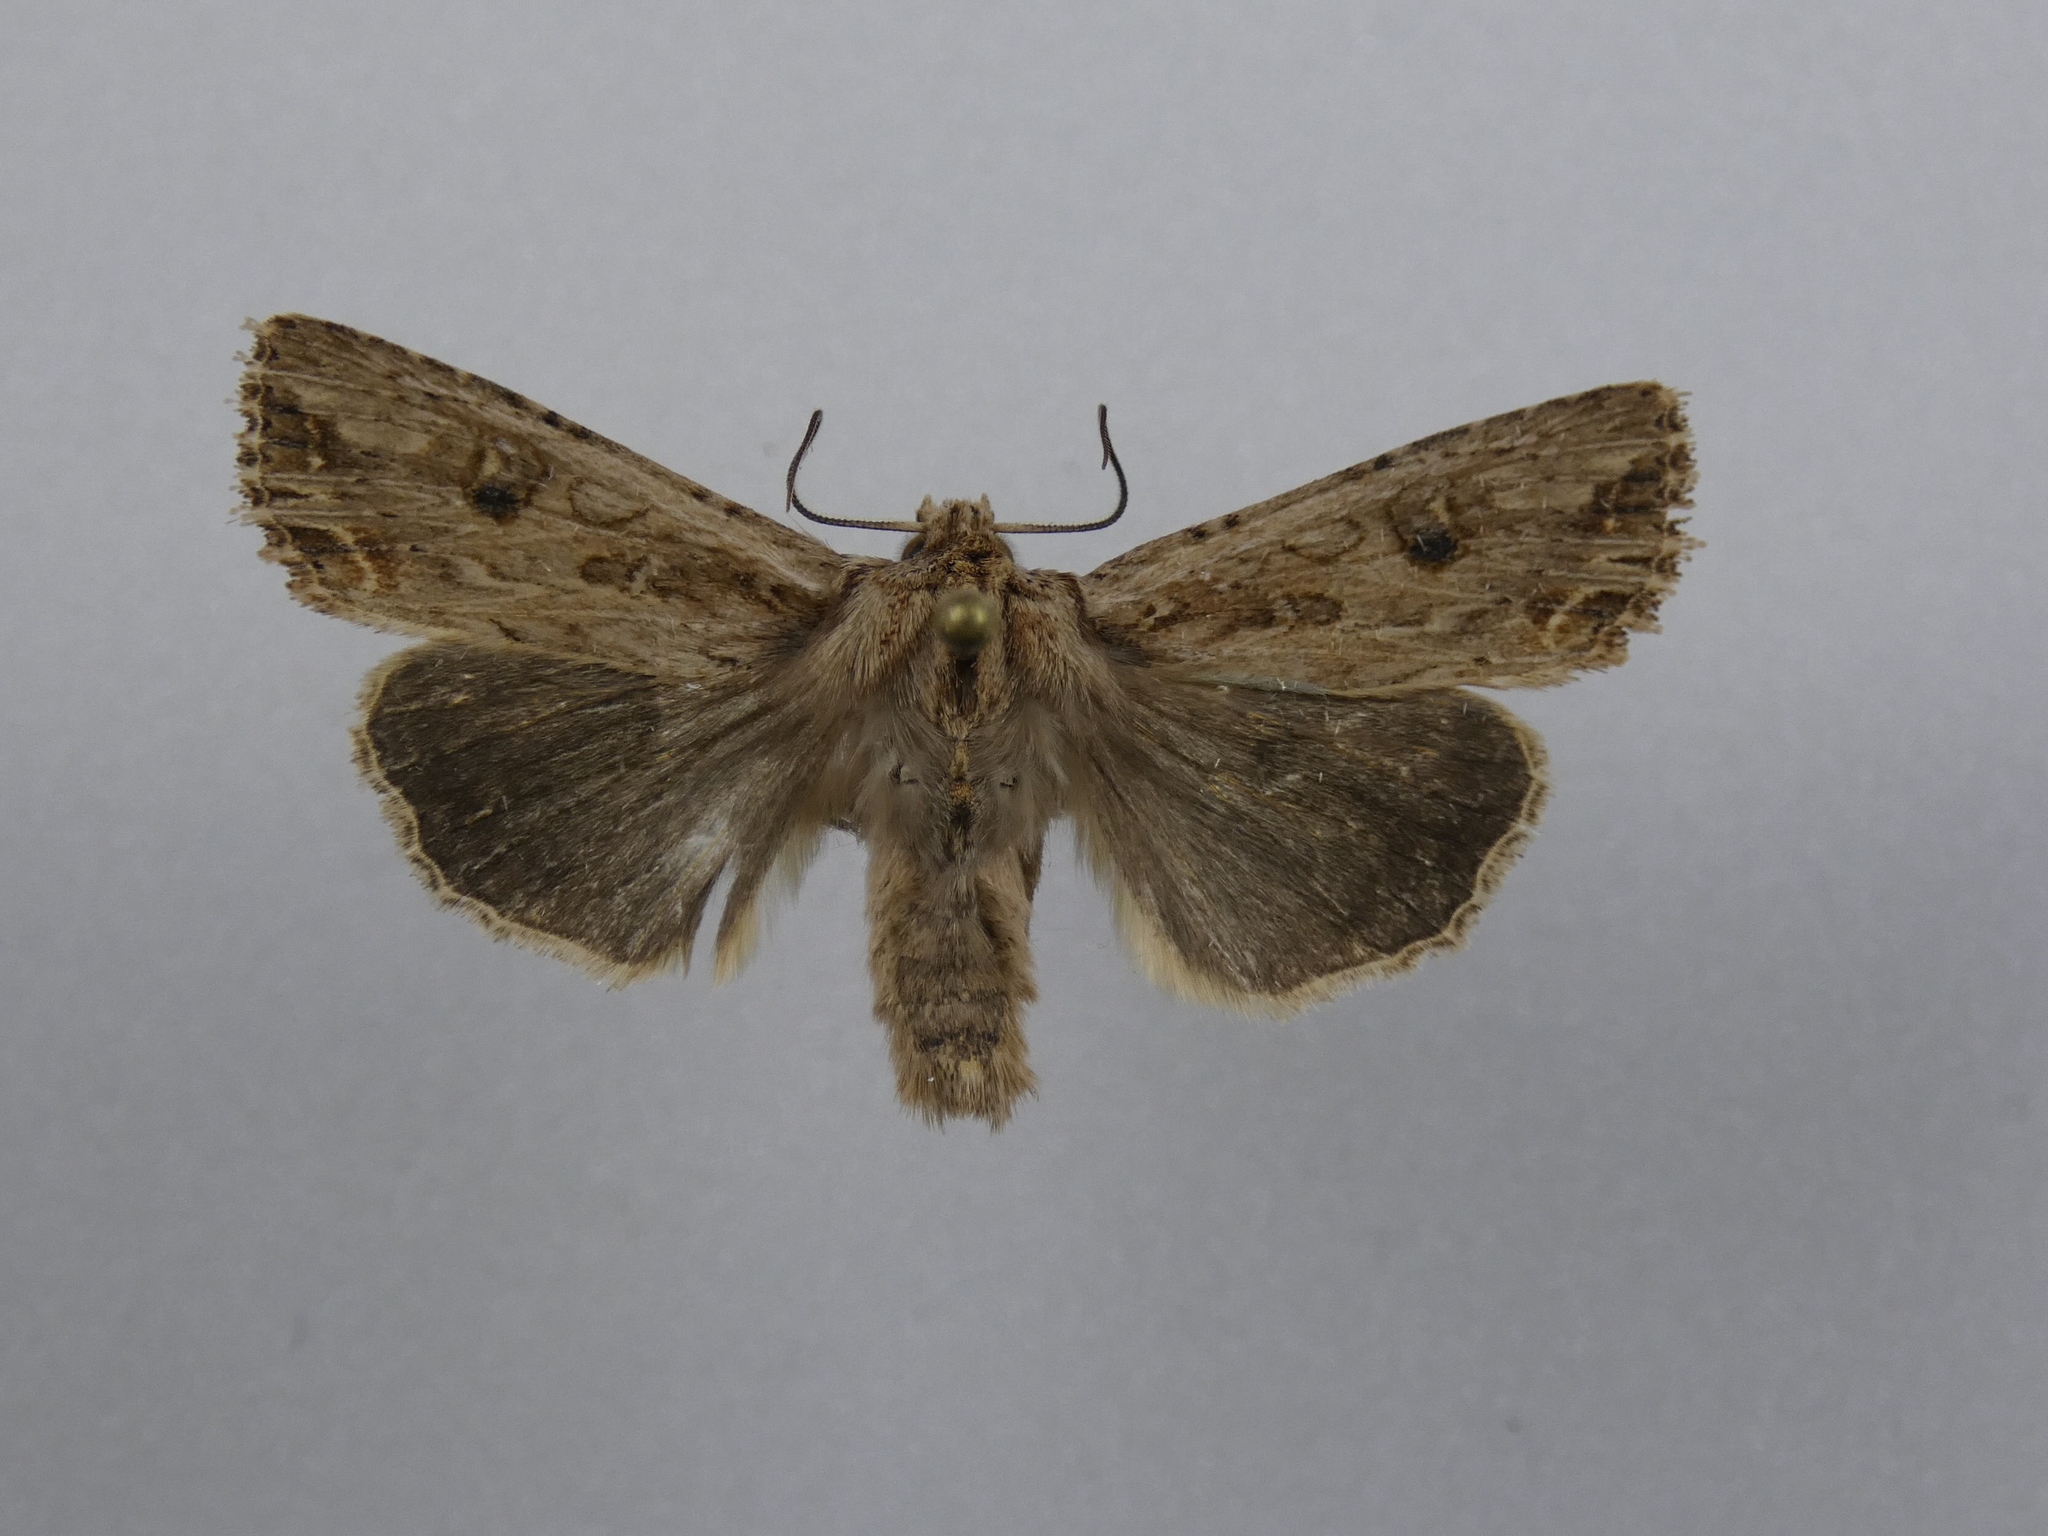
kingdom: Animalia
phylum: Arthropoda
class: Insecta
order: Lepidoptera
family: Noctuidae
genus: Ichneutica
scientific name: Ichneutica lignana
